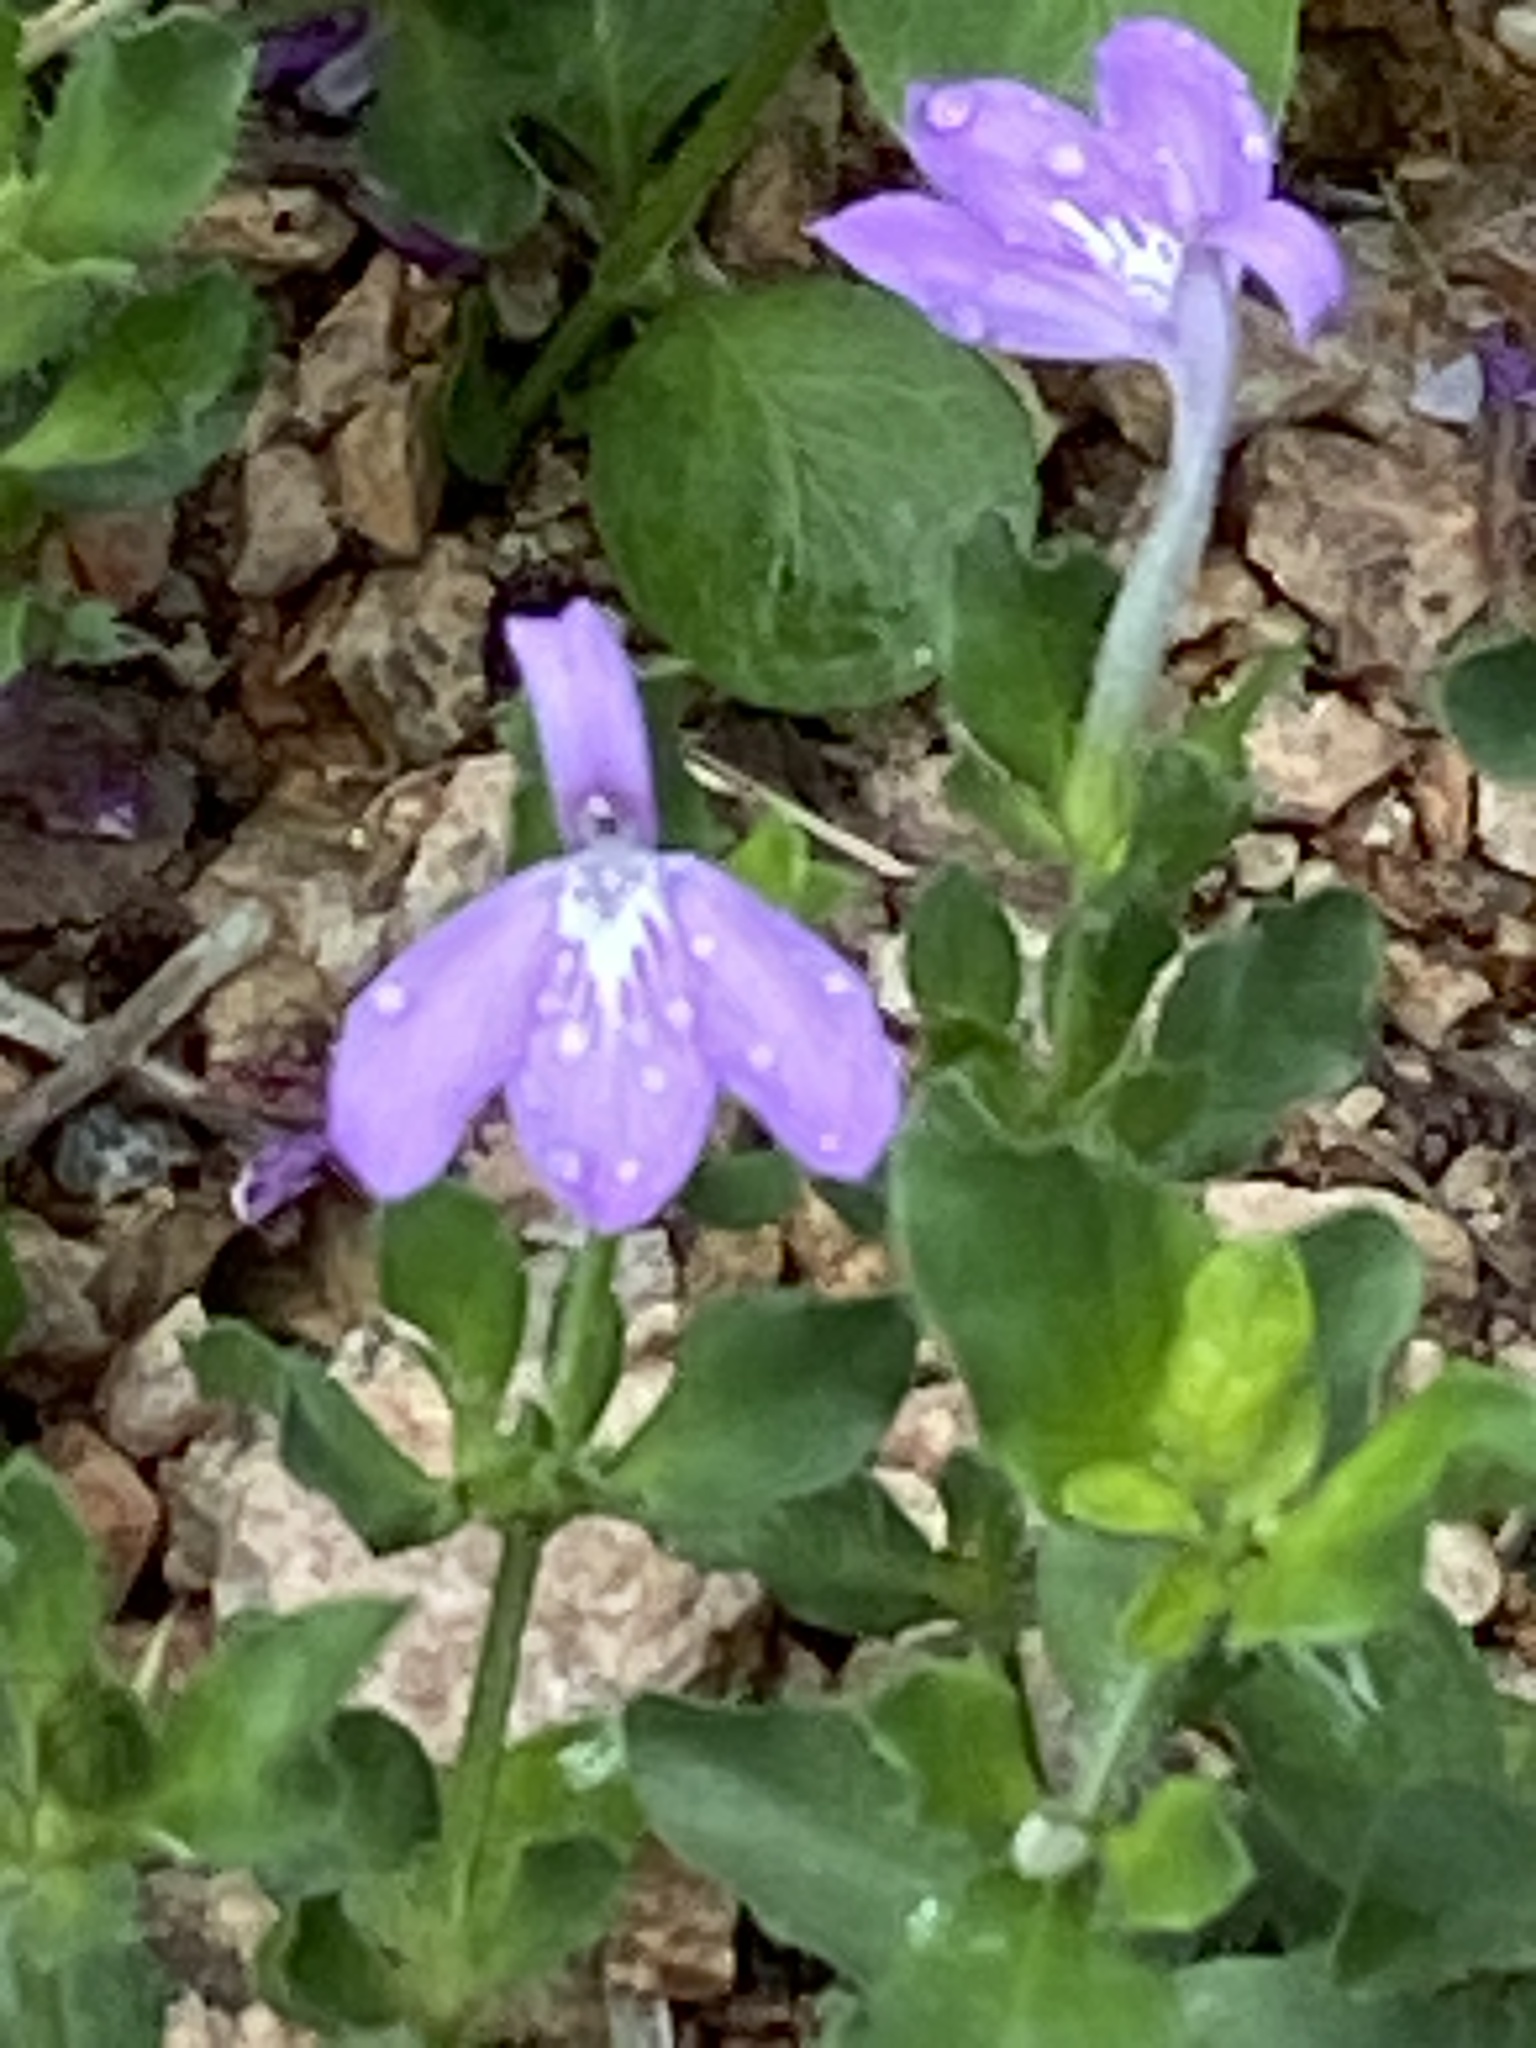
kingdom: Plantae
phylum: Tracheophyta
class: Magnoliopsida
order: Lamiales
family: Acanthaceae
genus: Justicia
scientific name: Justicia pilosella
